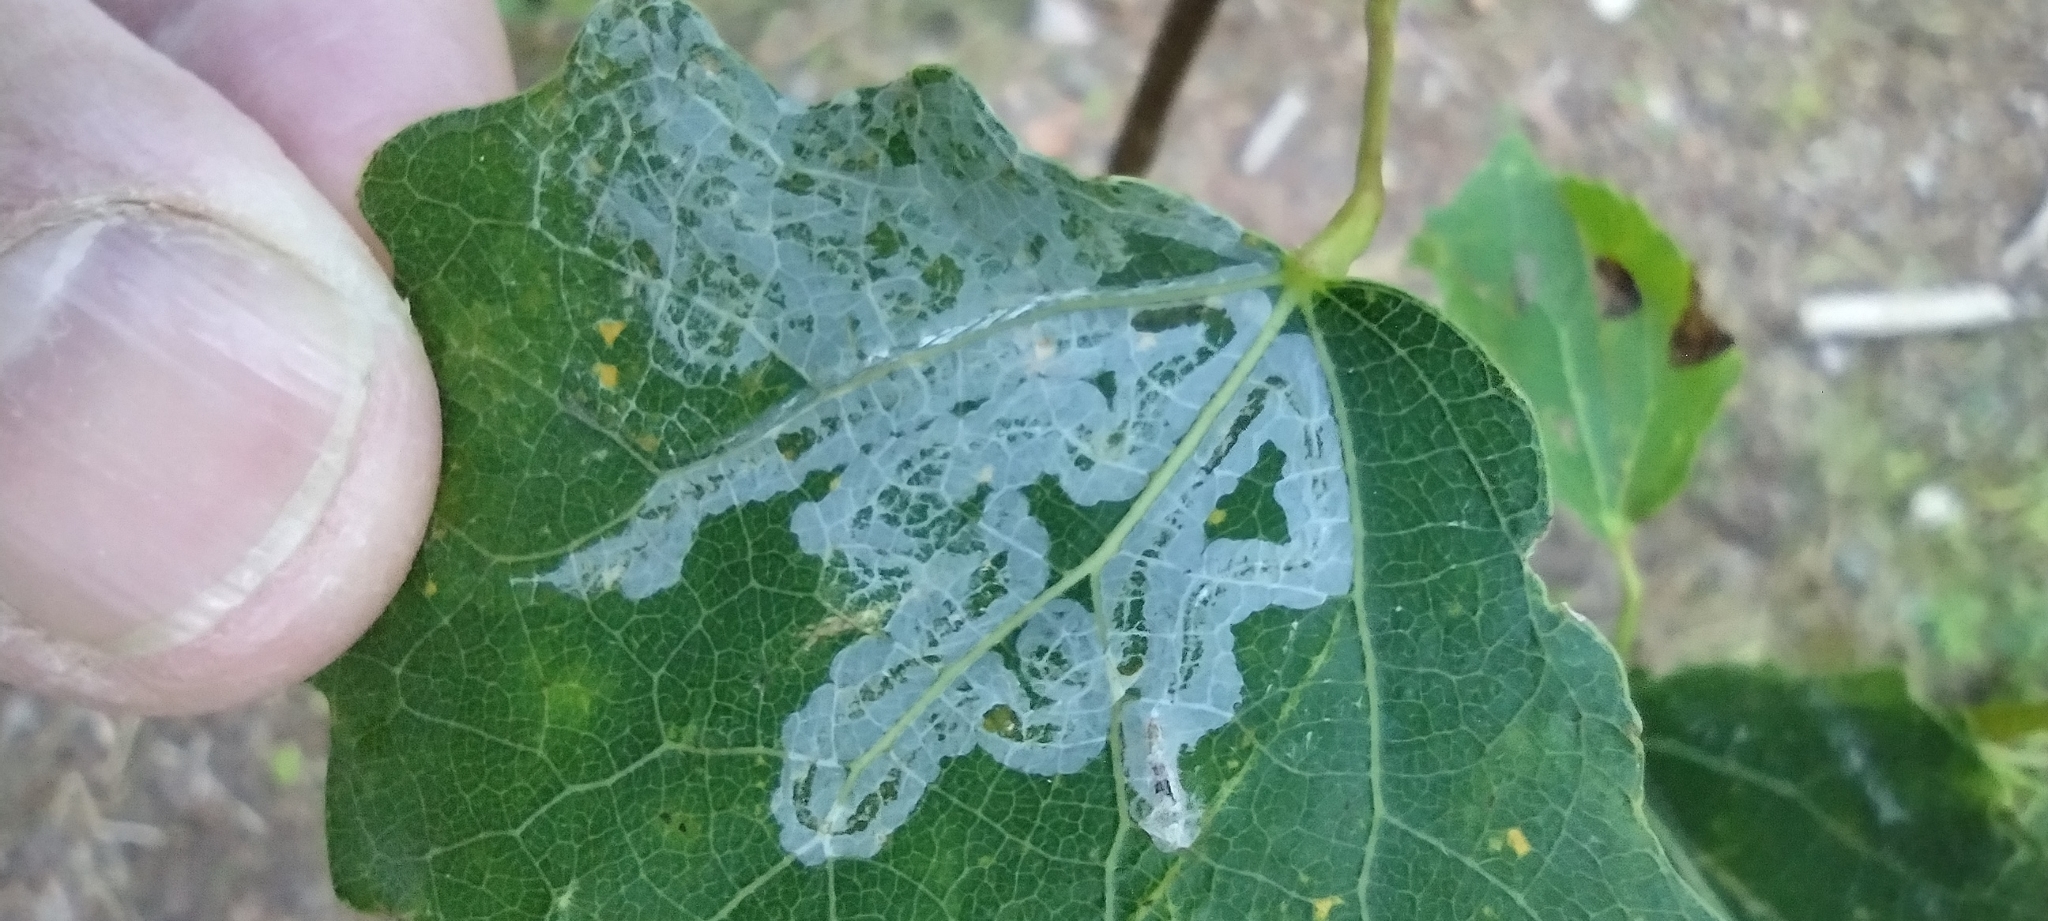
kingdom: Animalia
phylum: Arthropoda
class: Insecta
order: Lepidoptera
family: Gracillariidae
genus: Phyllocnistis
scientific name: Phyllocnistis labyrinthella
